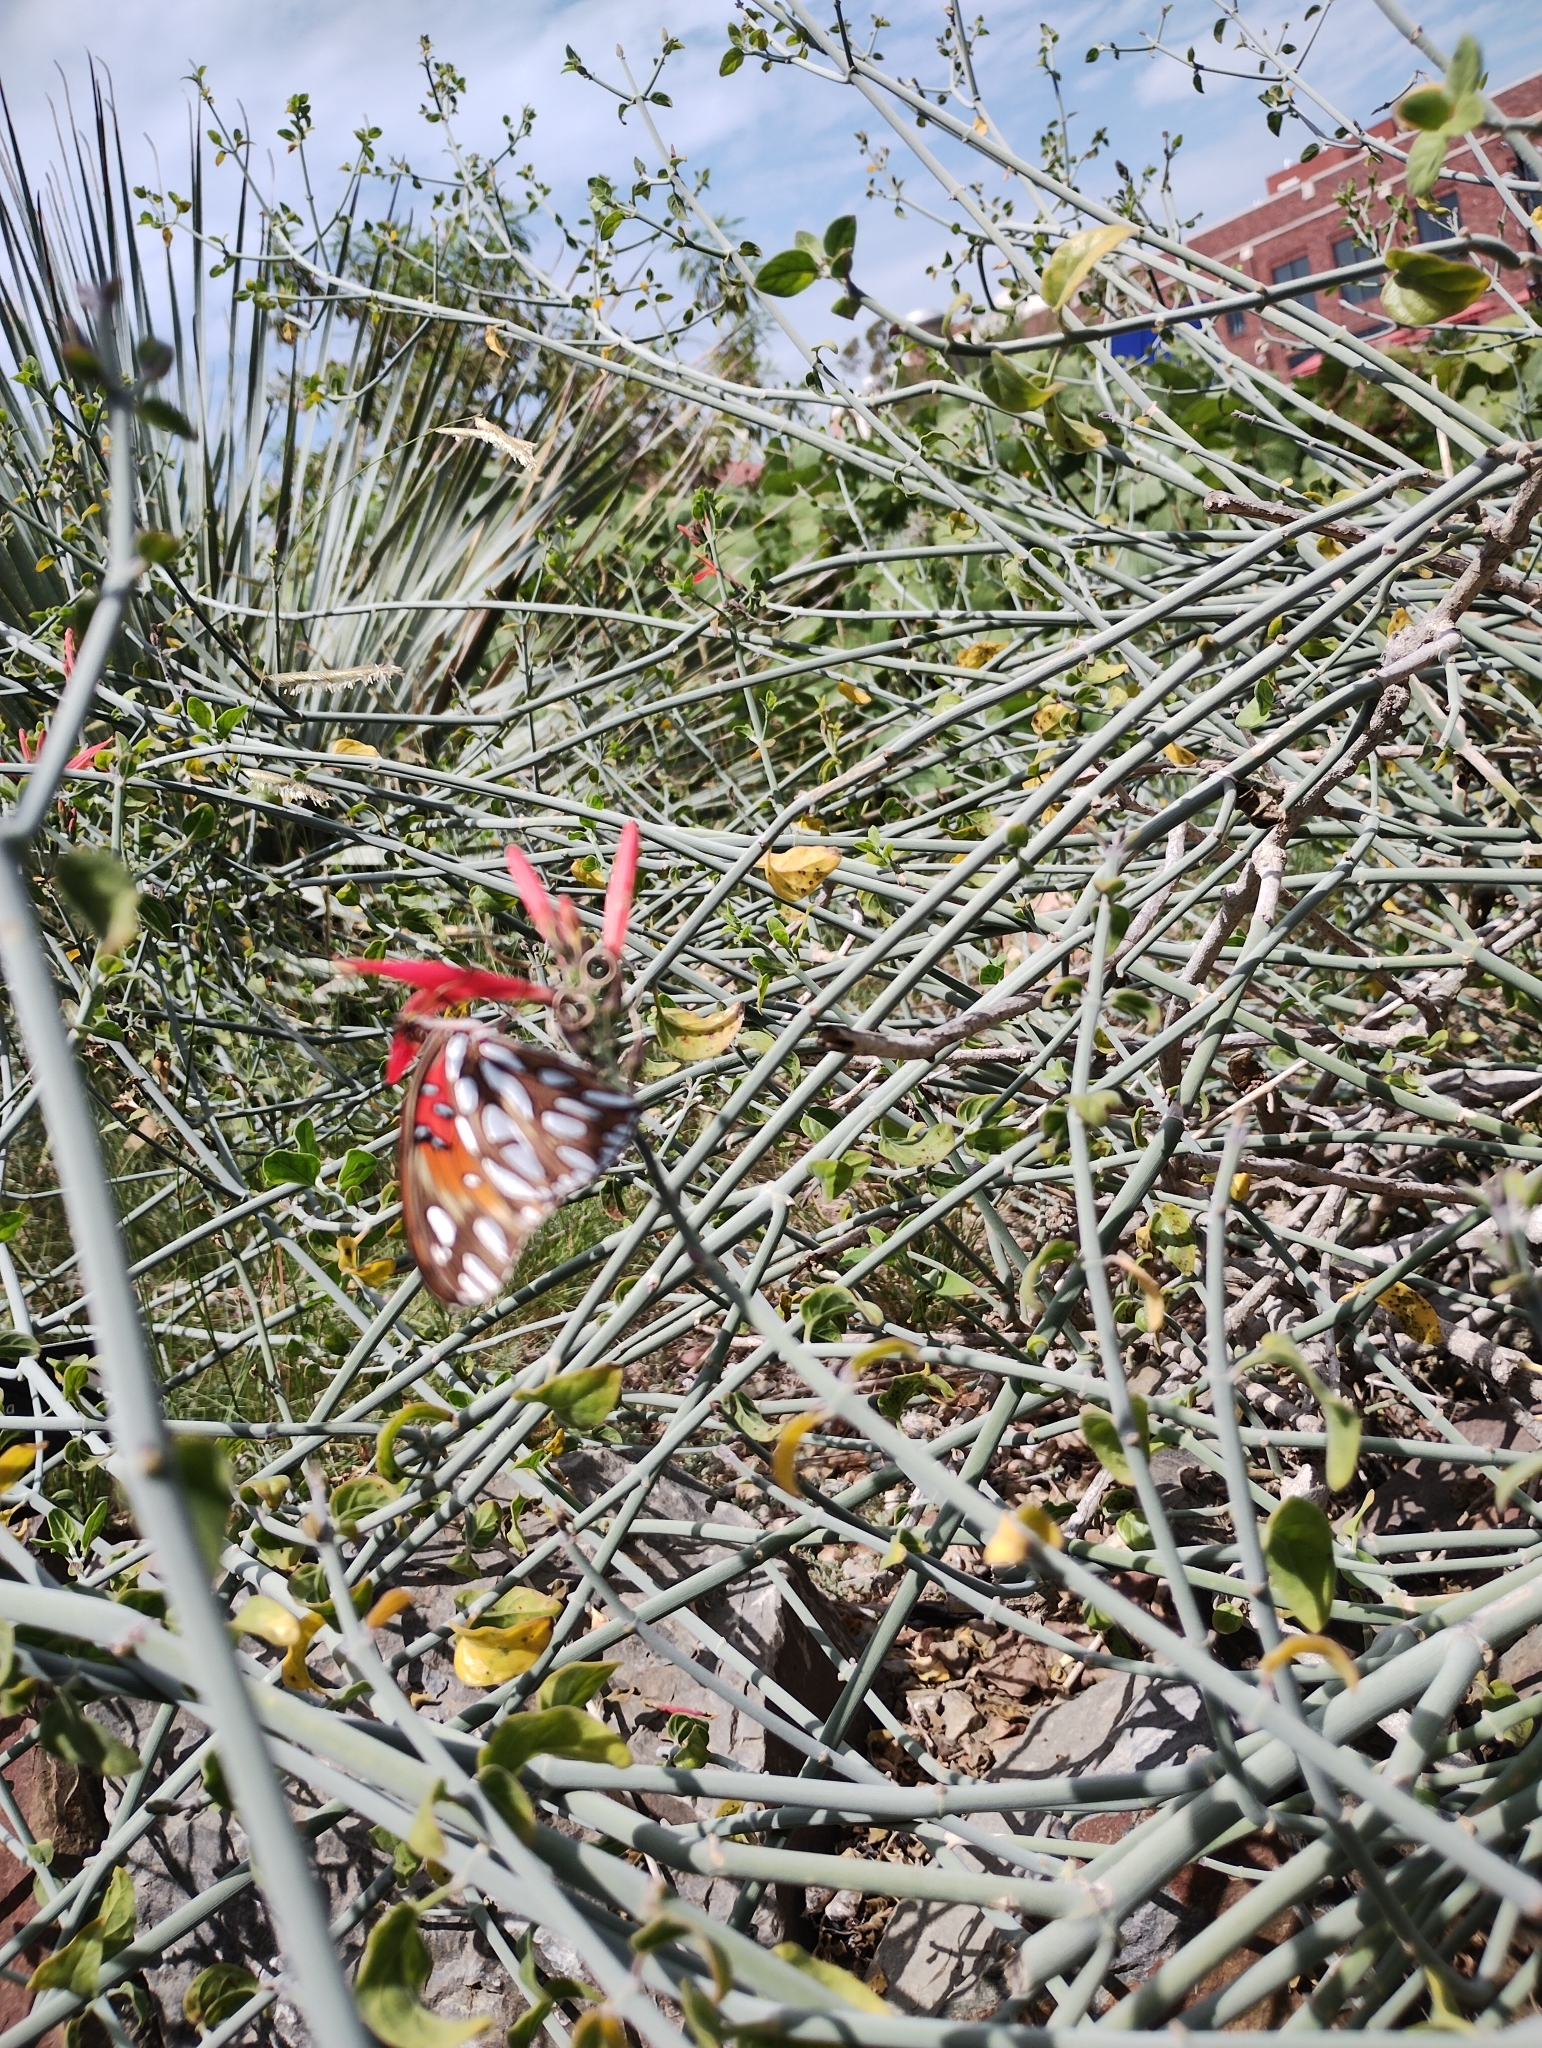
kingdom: Animalia
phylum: Arthropoda
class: Insecta
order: Lepidoptera
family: Nymphalidae
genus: Dione
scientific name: Dione vanillae
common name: Gulf fritillary
